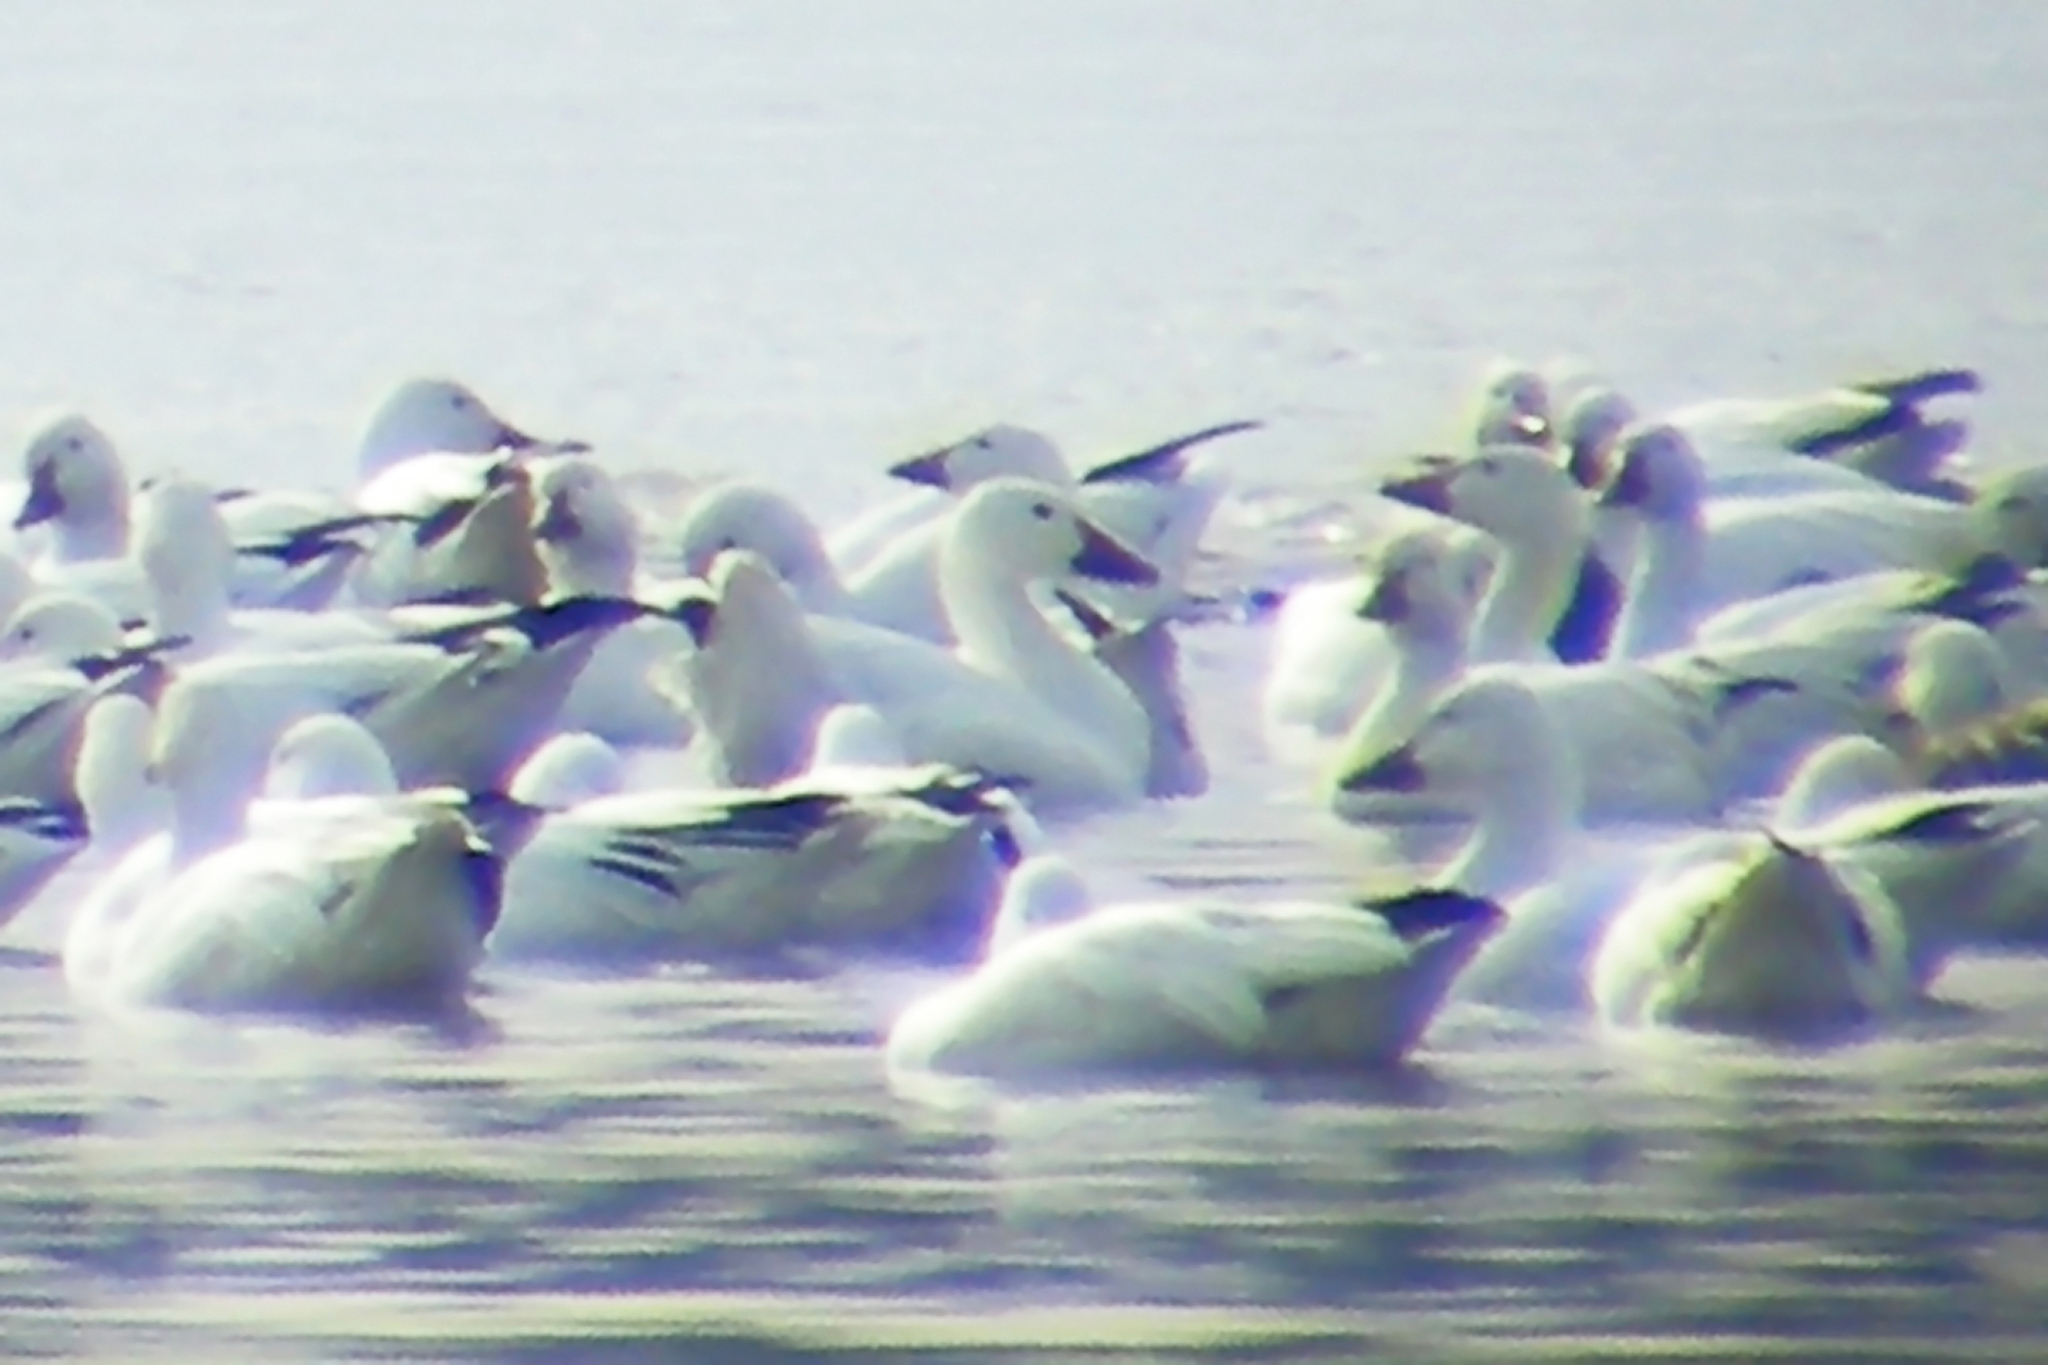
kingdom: Animalia
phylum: Chordata
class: Aves
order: Anseriformes
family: Anatidae
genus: Anser
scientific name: Anser caerulescens
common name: Snow goose
